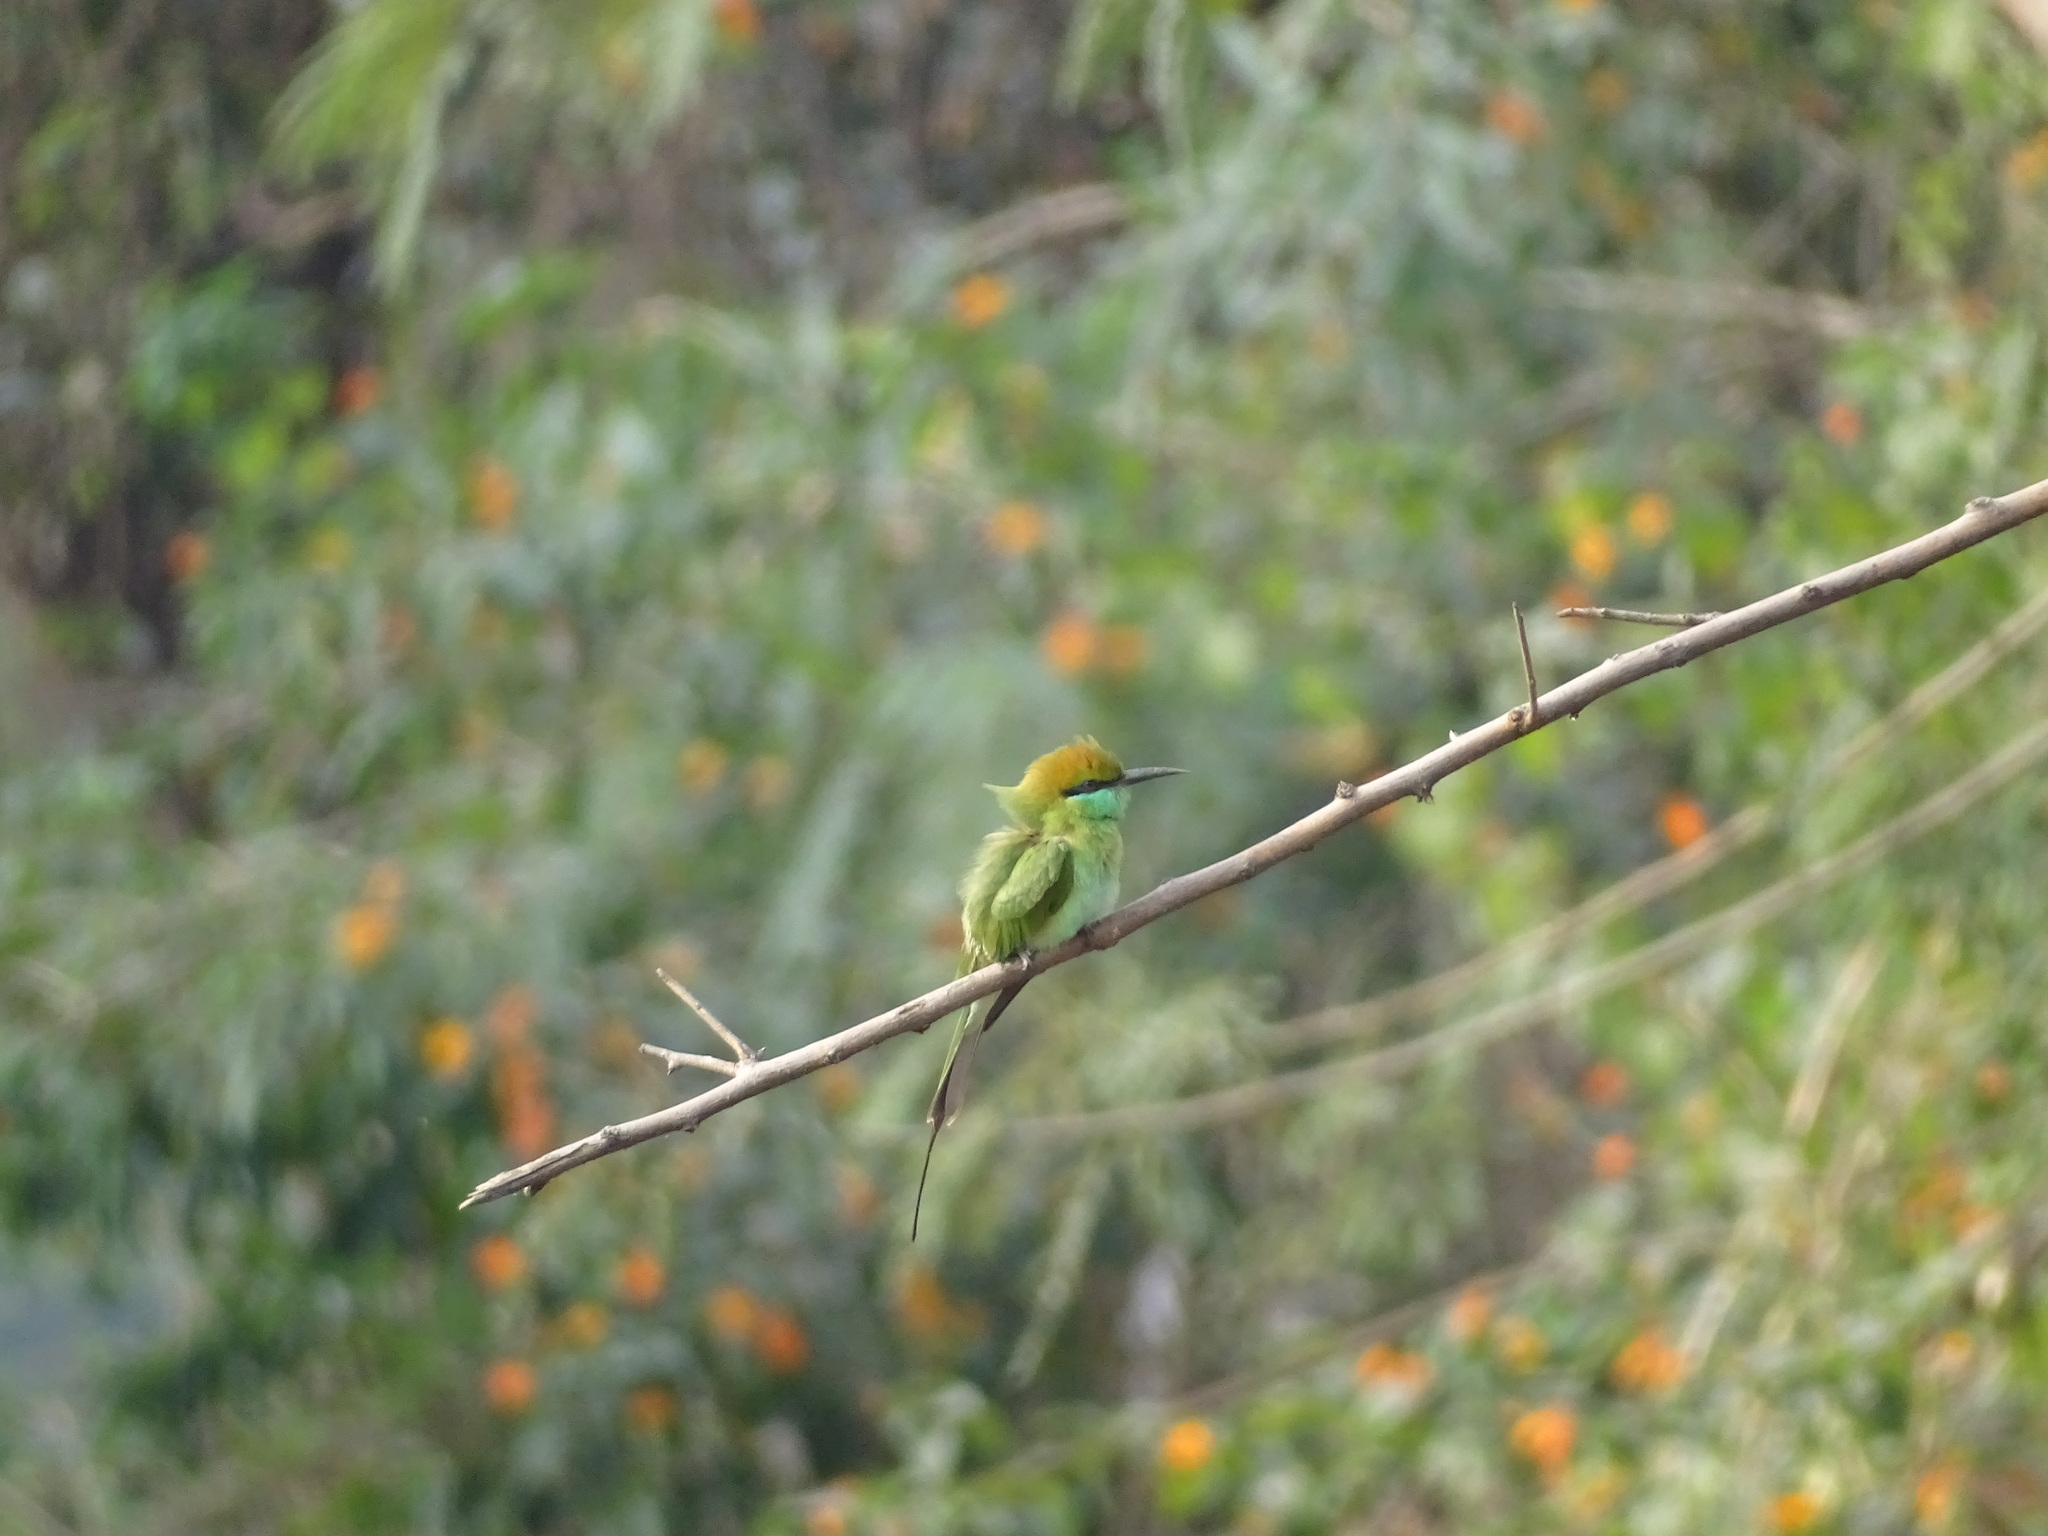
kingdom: Animalia
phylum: Chordata
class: Aves
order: Coraciiformes
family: Meropidae
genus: Merops
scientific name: Merops orientalis
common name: Green bee-eater
